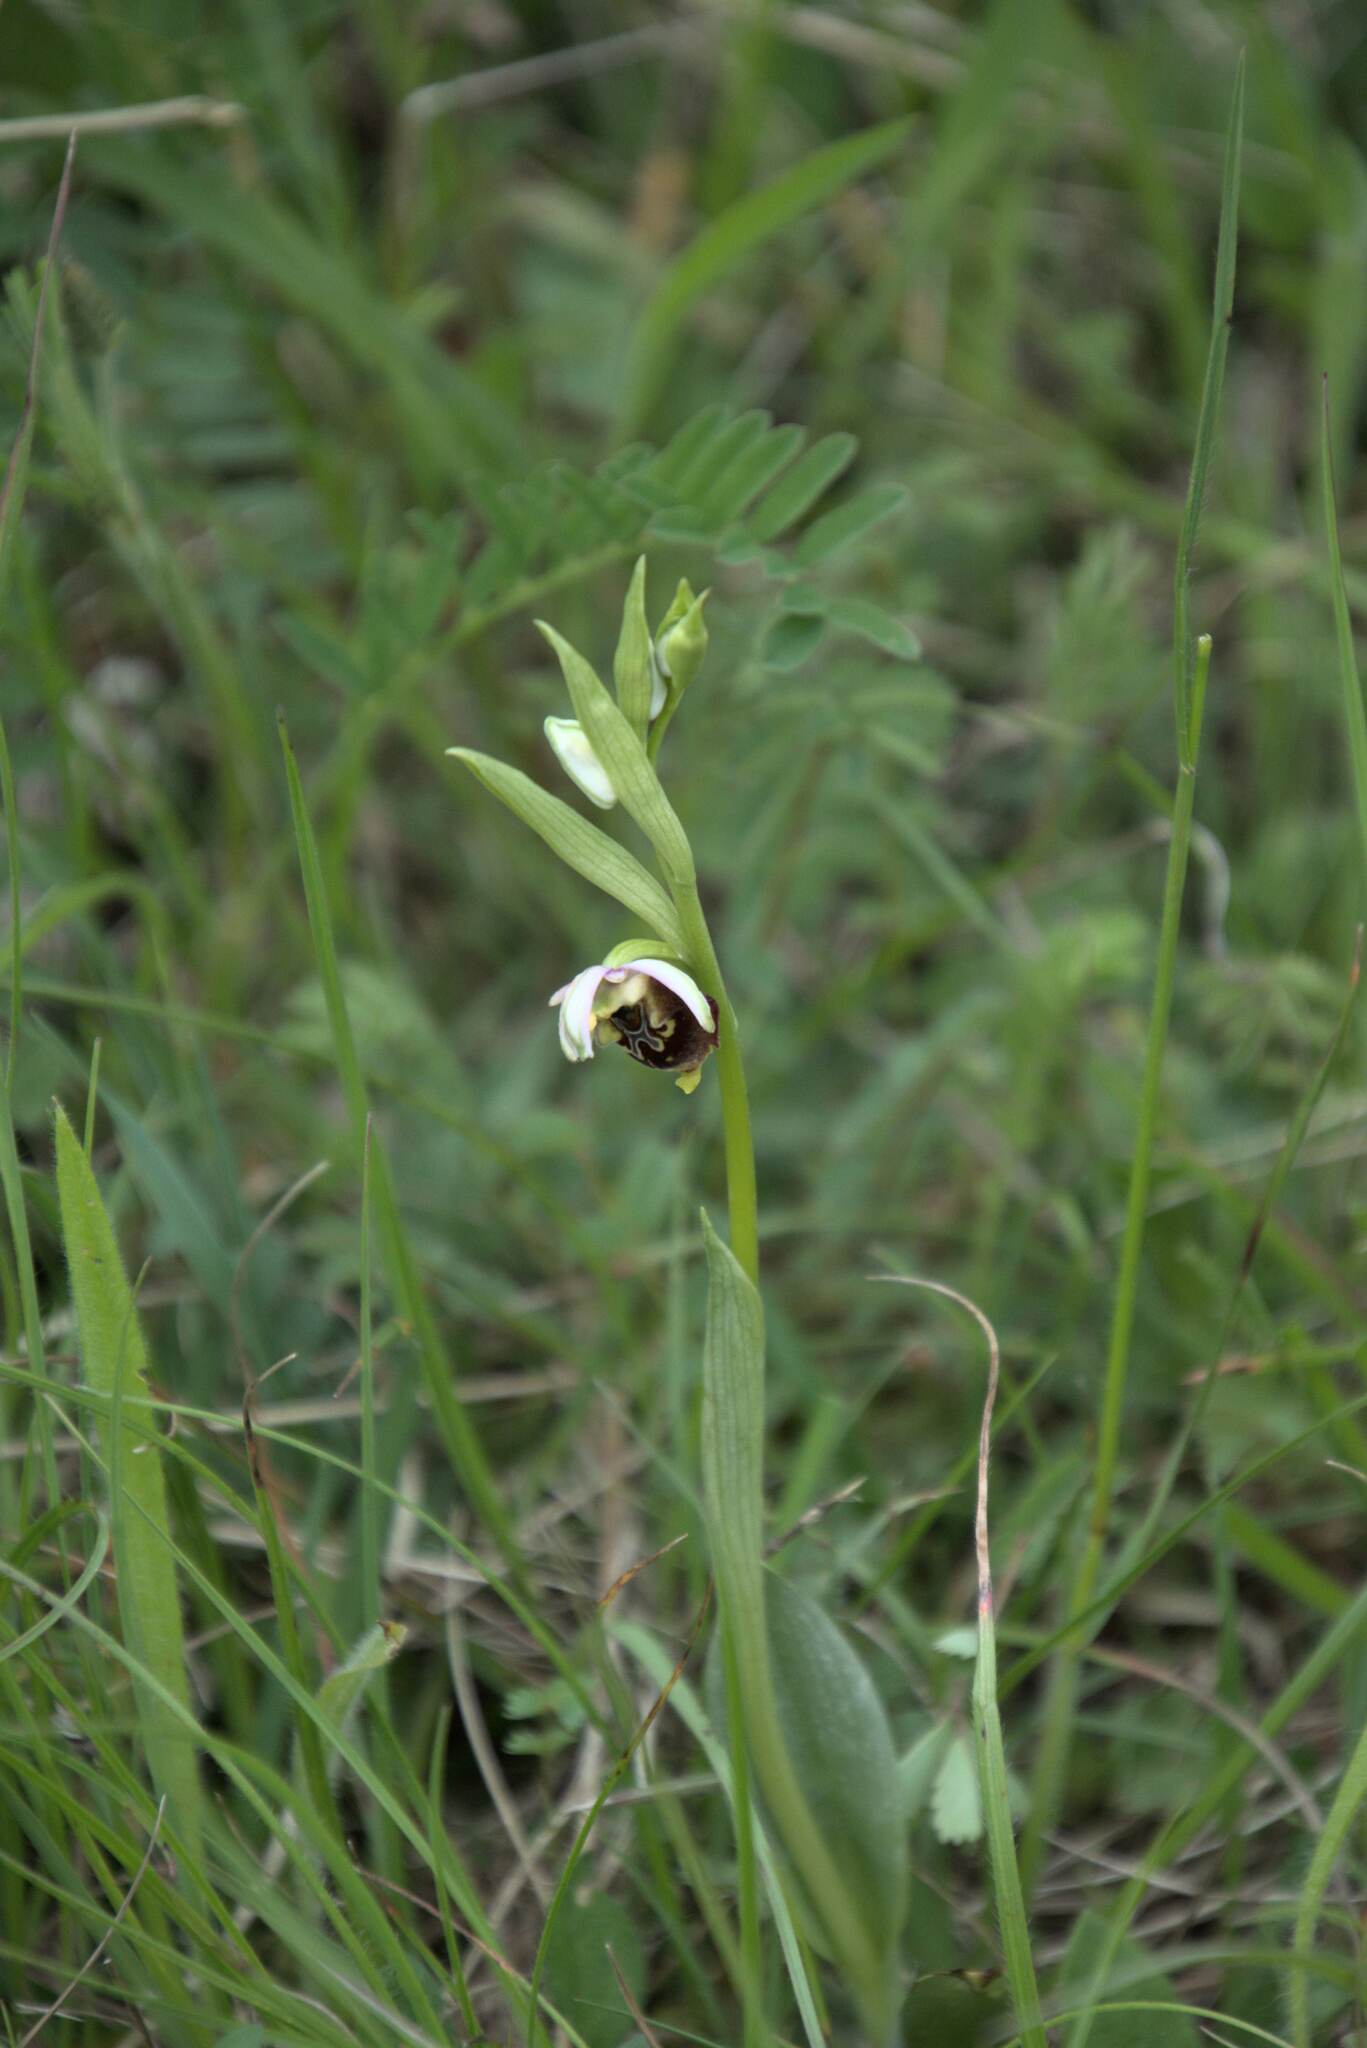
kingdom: Plantae
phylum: Tracheophyta
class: Liliopsida
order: Asparagales
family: Orchidaceae
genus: Ophrys
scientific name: Ophrys holosericea
